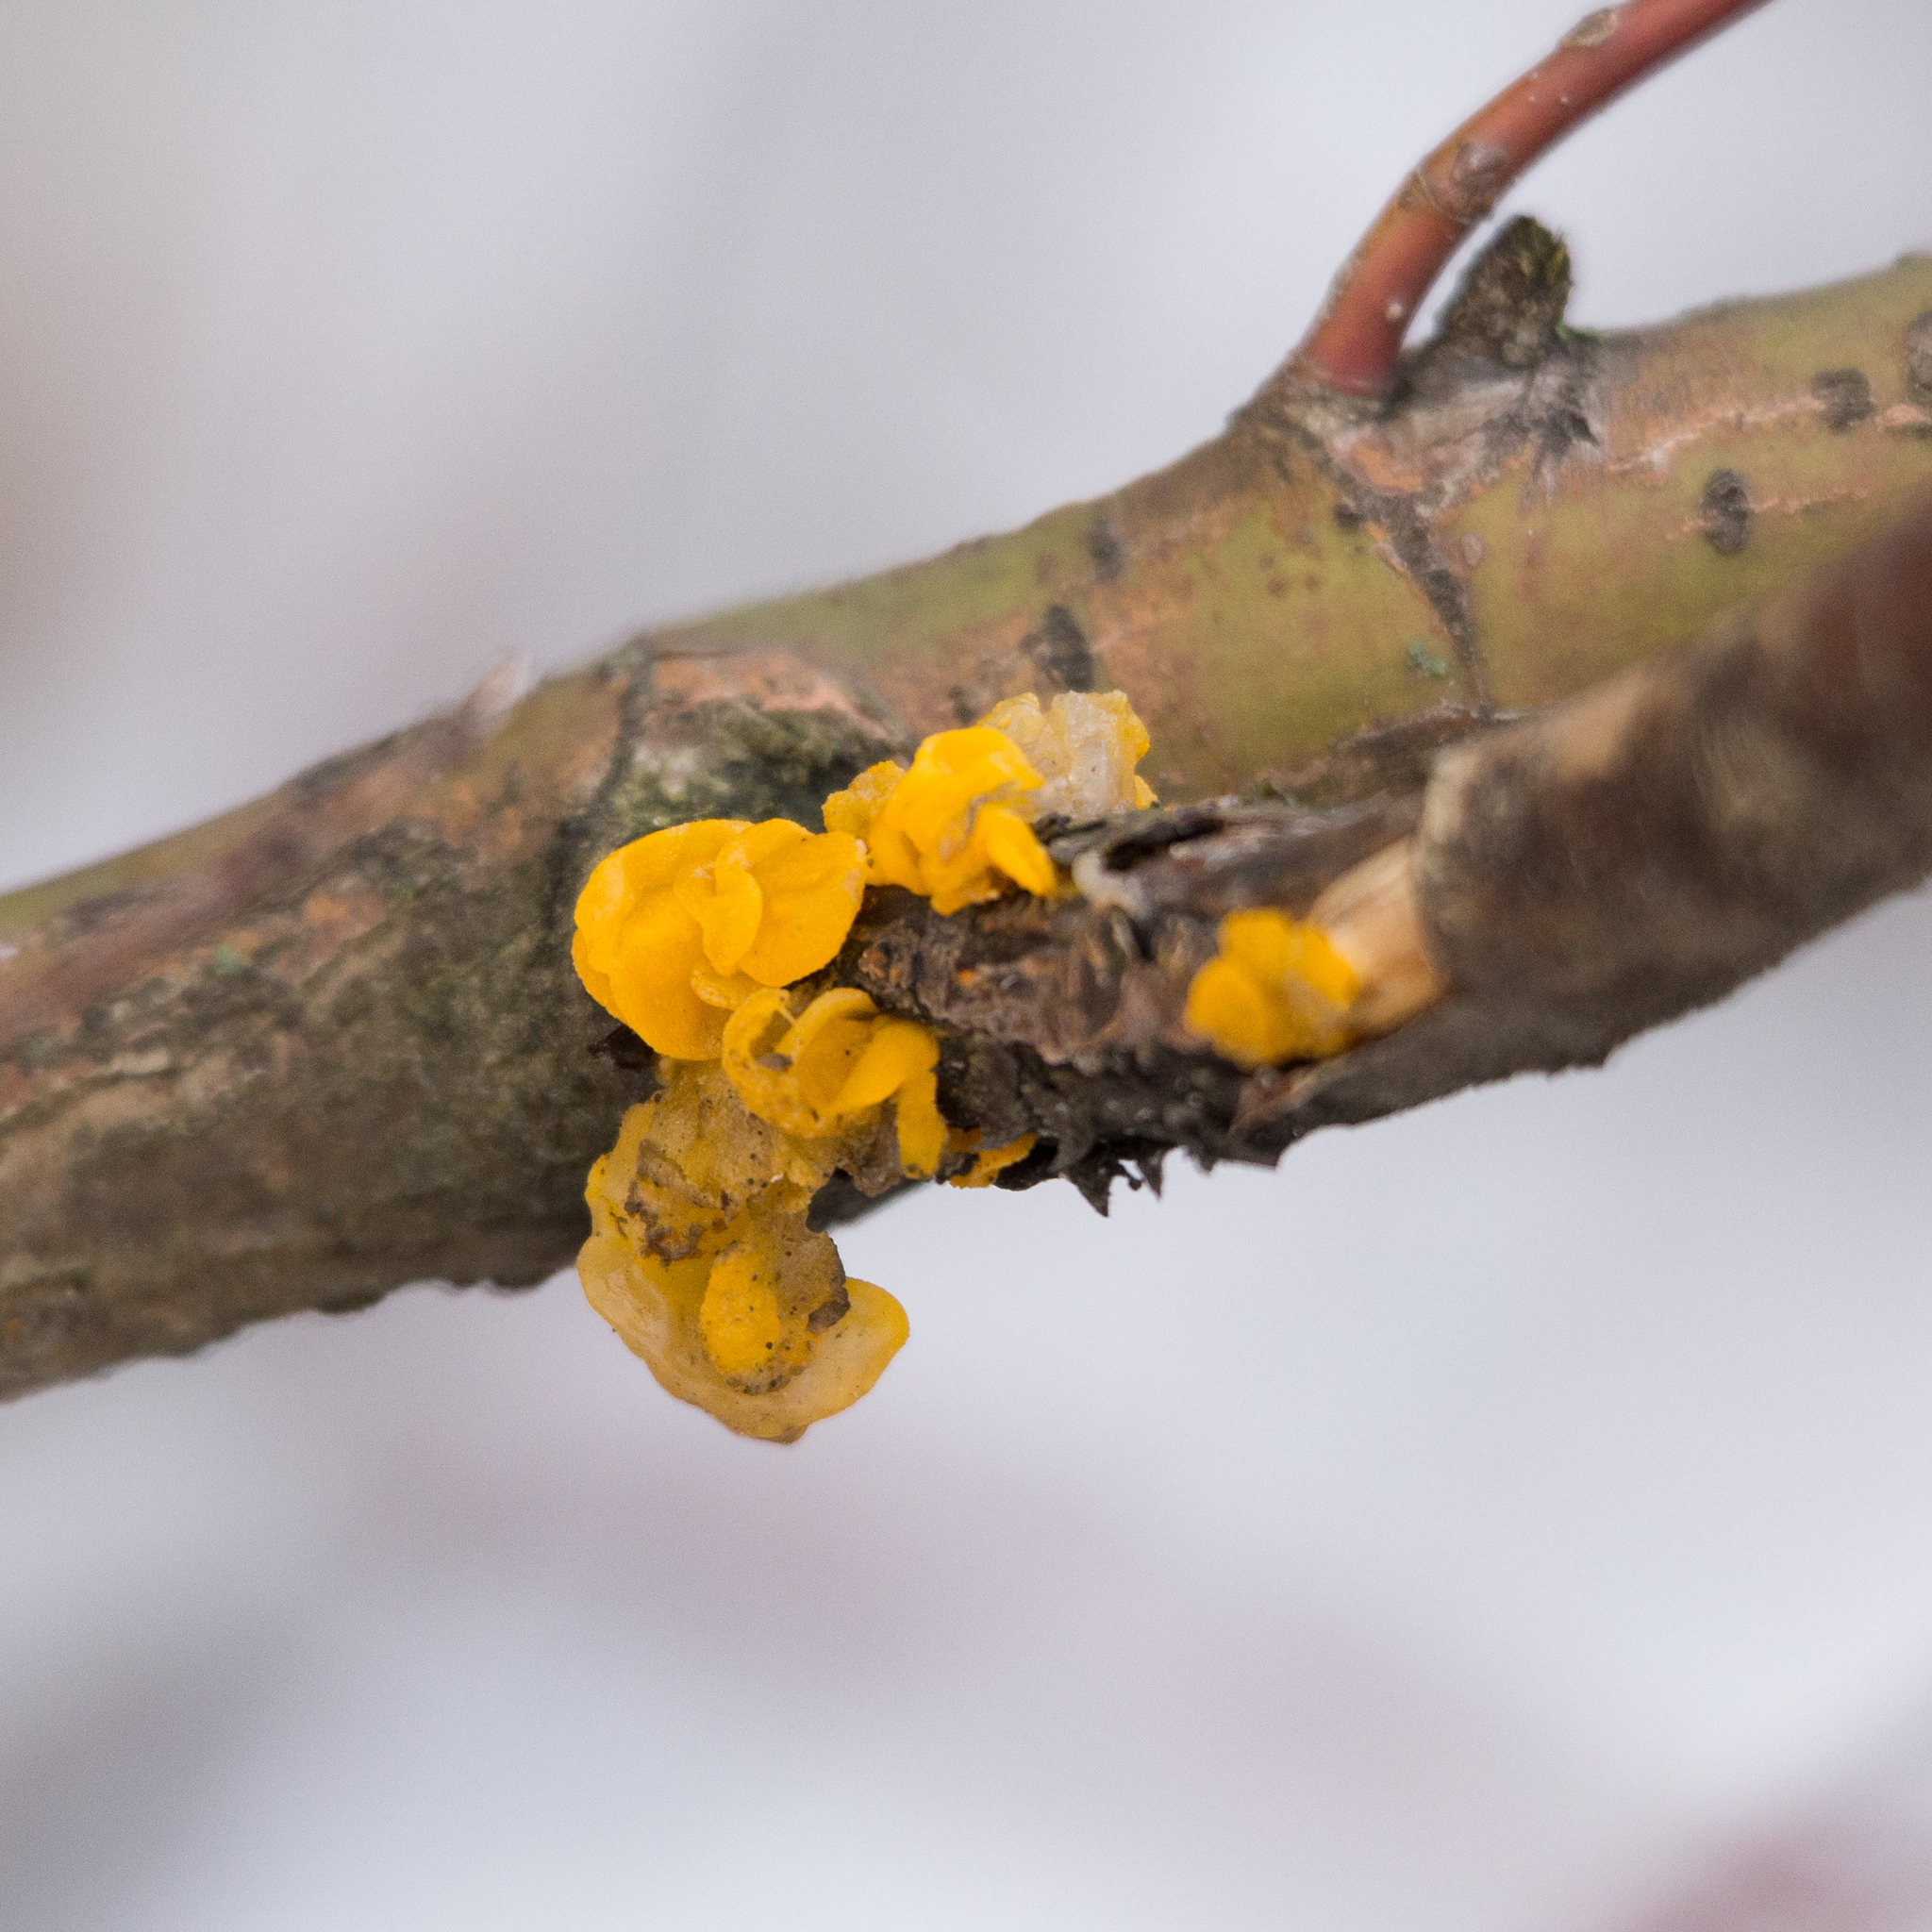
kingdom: Fungi
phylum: Basidiomycota
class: Tremellomycetes
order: Tremellales
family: Tremellaceae
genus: Tremella
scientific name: Tremella mesenterica
